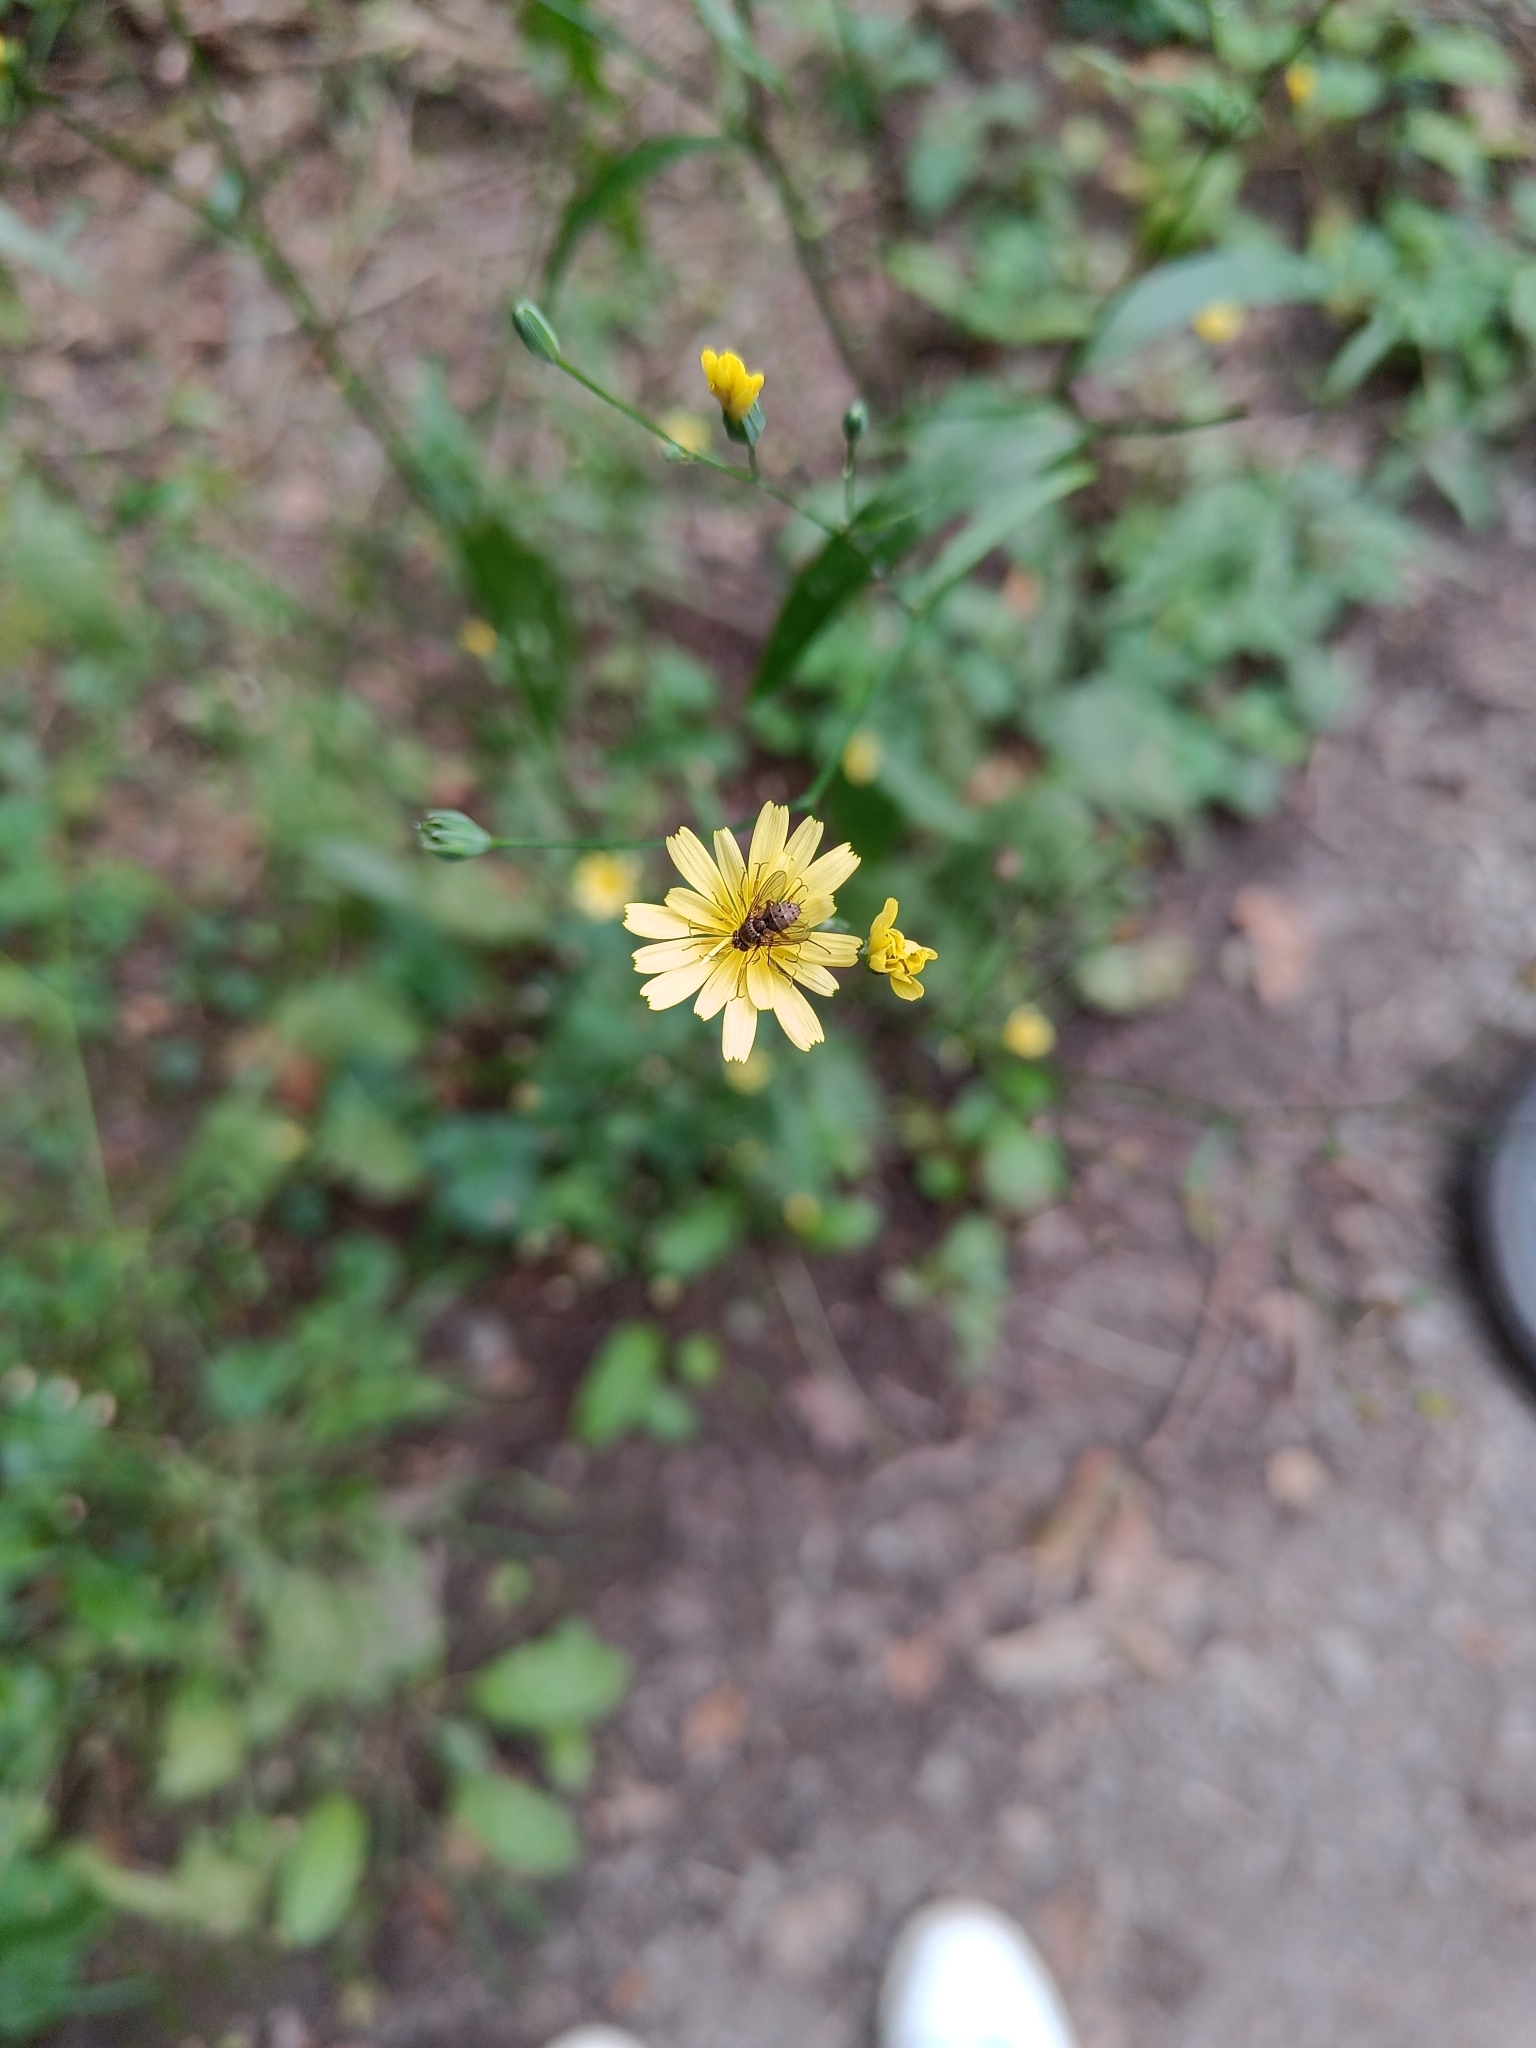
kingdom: Plantae
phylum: Tracheophyta
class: Magnoliopsida
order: Asterales
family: Asteraceae
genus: Lapsana
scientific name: Lapsana communis
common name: Nipplewort
